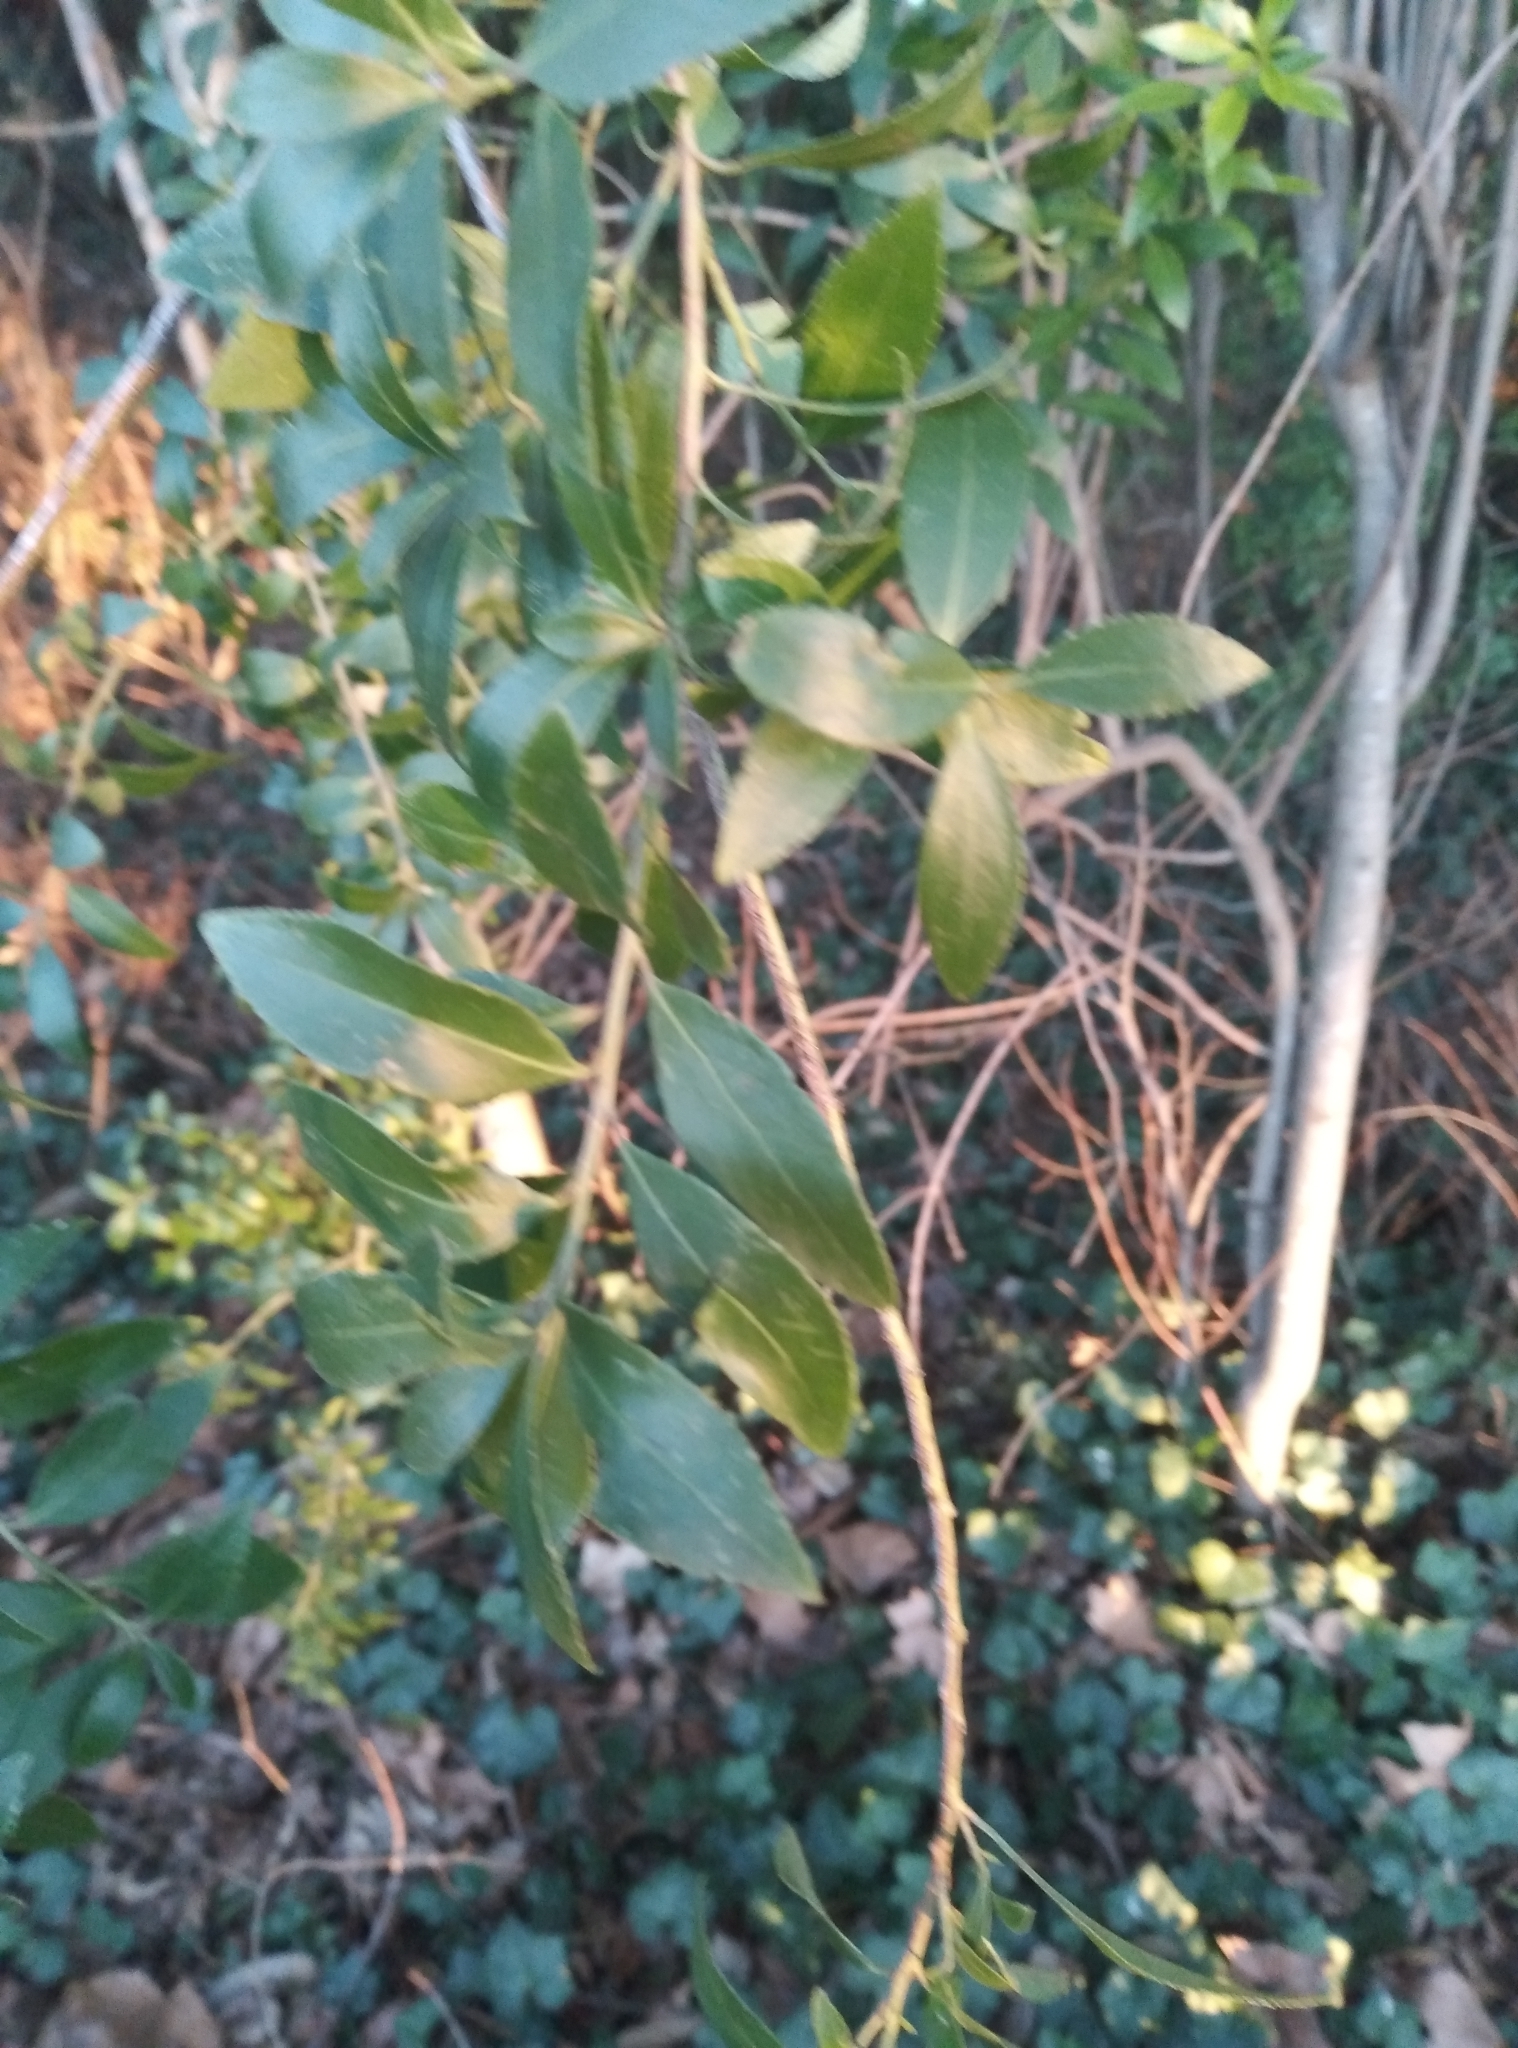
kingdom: Plantae
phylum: Tracheophyta
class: Magnoliopsida
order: Celastrales
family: Celastraceae
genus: Maytenus
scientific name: Maytenus boaria
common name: Mayten
